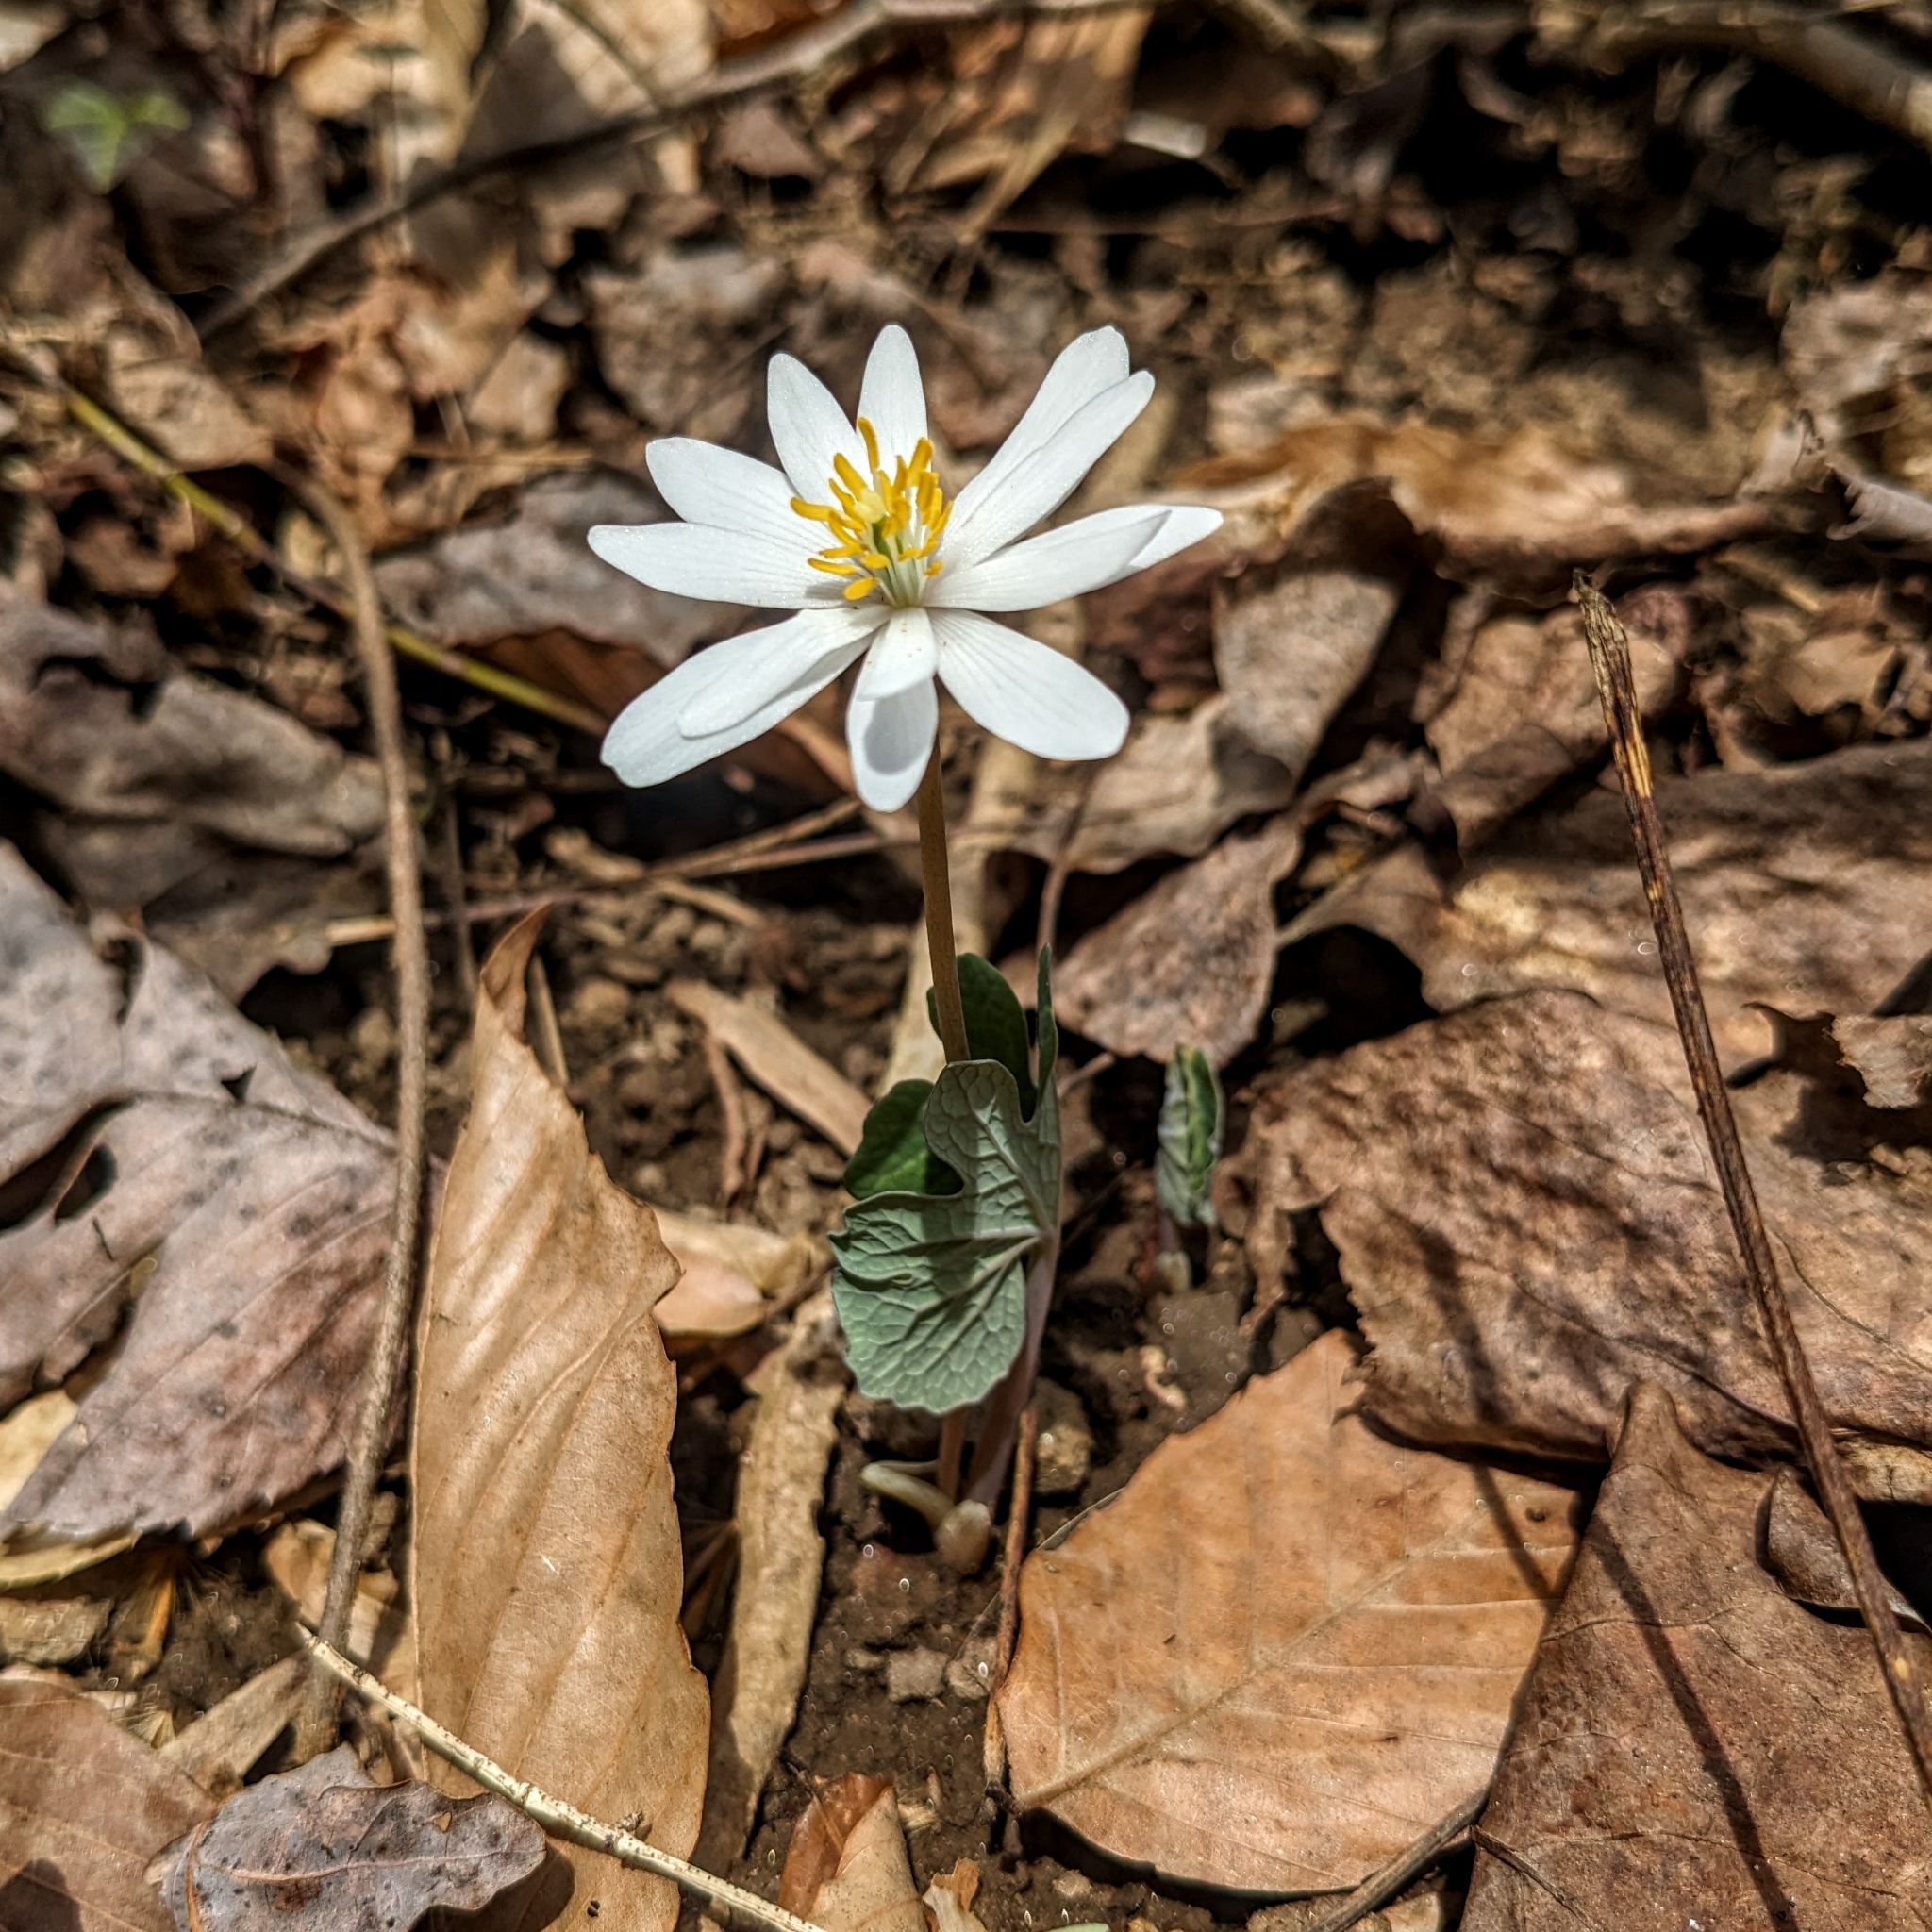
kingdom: Plantae
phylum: Tracheophyta
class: Magnoliopsida
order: Ranunculales
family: Papaveraceae
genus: Sanguinaria
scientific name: Sanguinaria canadensis
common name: Bloodroot
